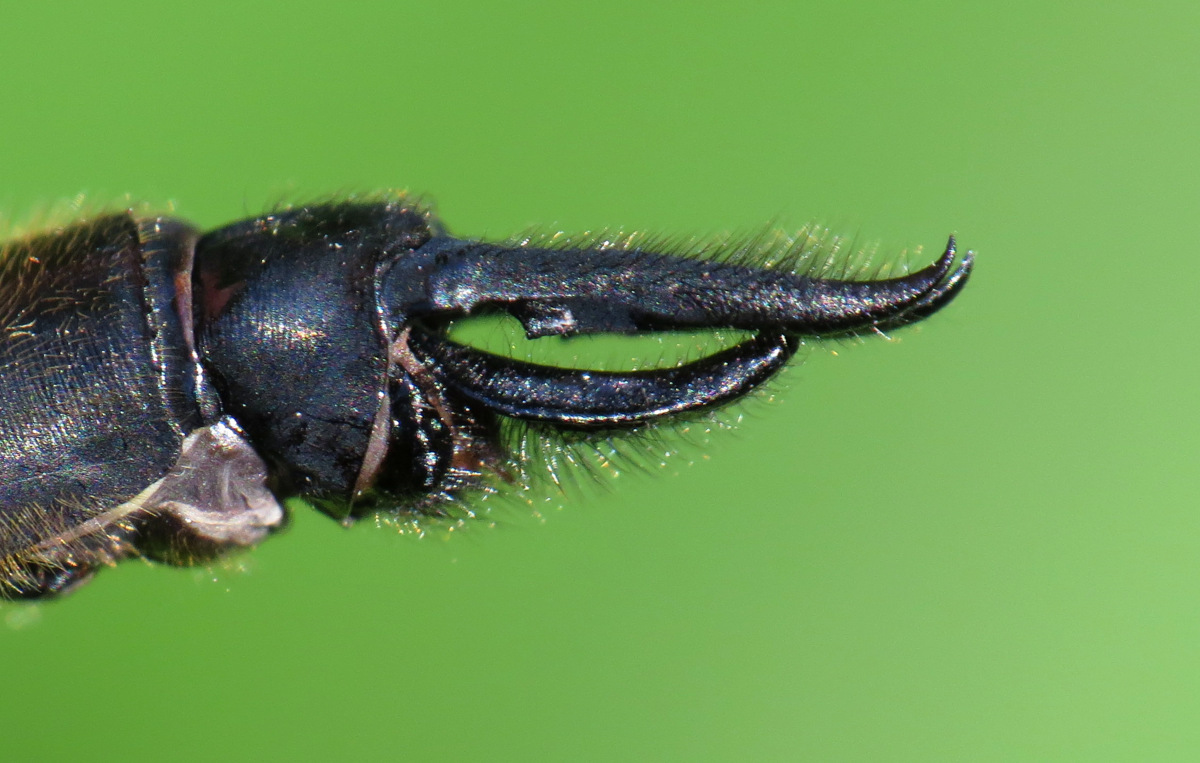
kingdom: Animalia
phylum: Arthropoda
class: Insecta
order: Odonata
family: Corduliidae
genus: Somatochlora
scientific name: Somatochlora elongata
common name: Ski-tipped emerald
